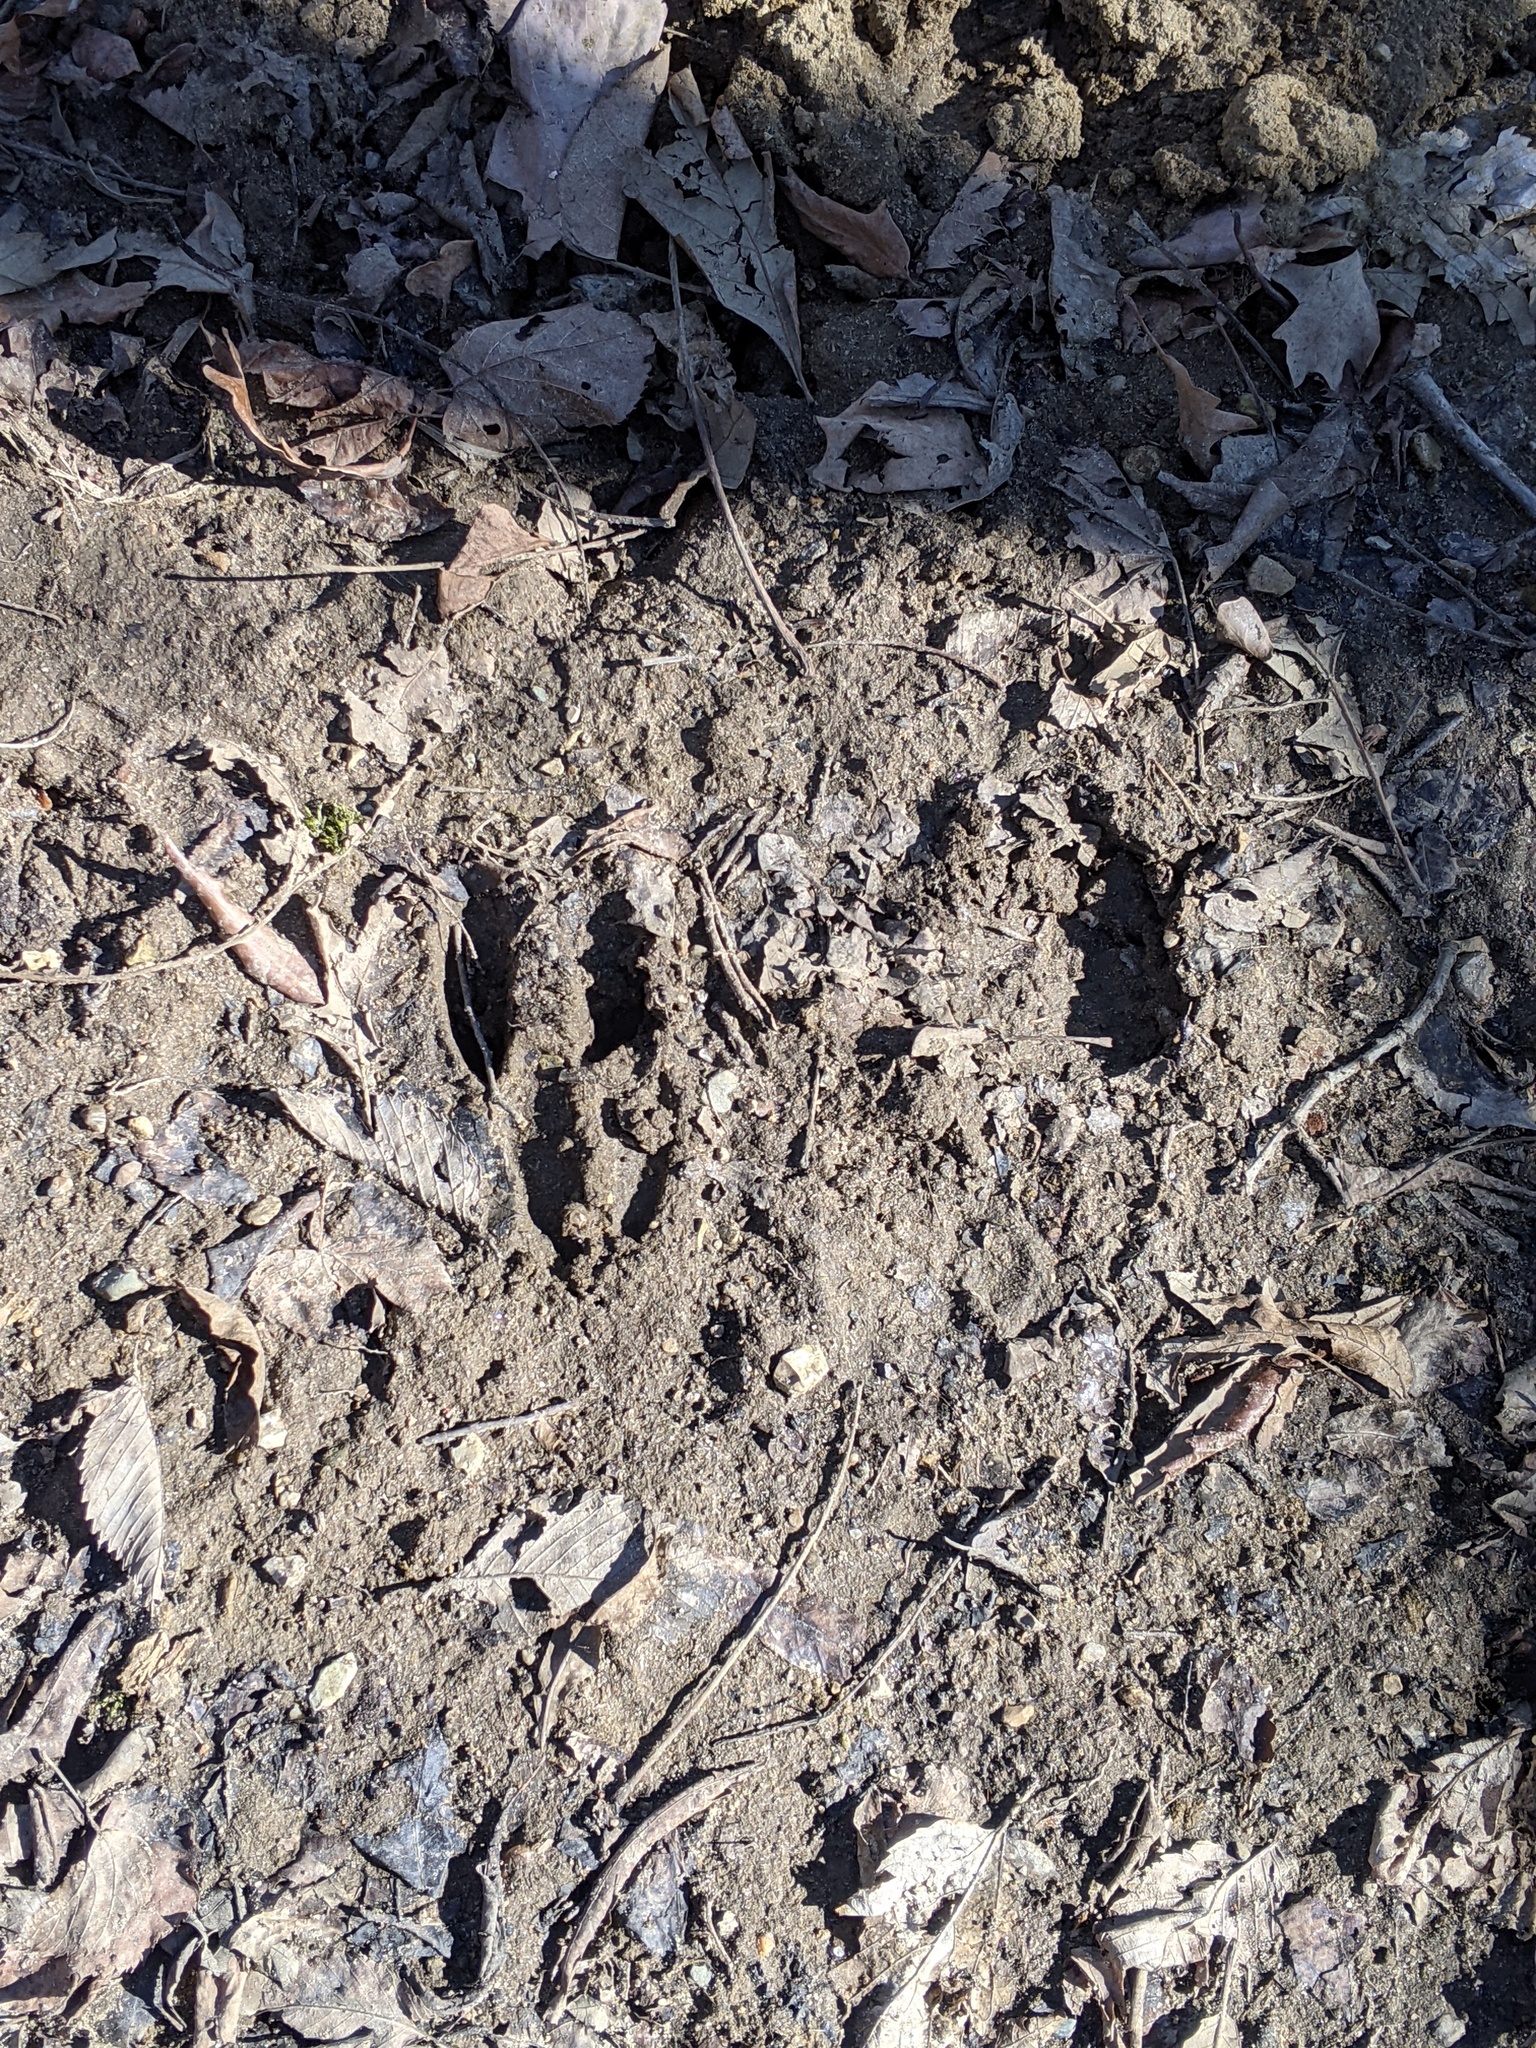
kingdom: Animalia
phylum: Chordata
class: Mammalia
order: Artiodactyla
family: Cervidae
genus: Odocoileus
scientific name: Odocoileus virginianus
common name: White-tailed deer
